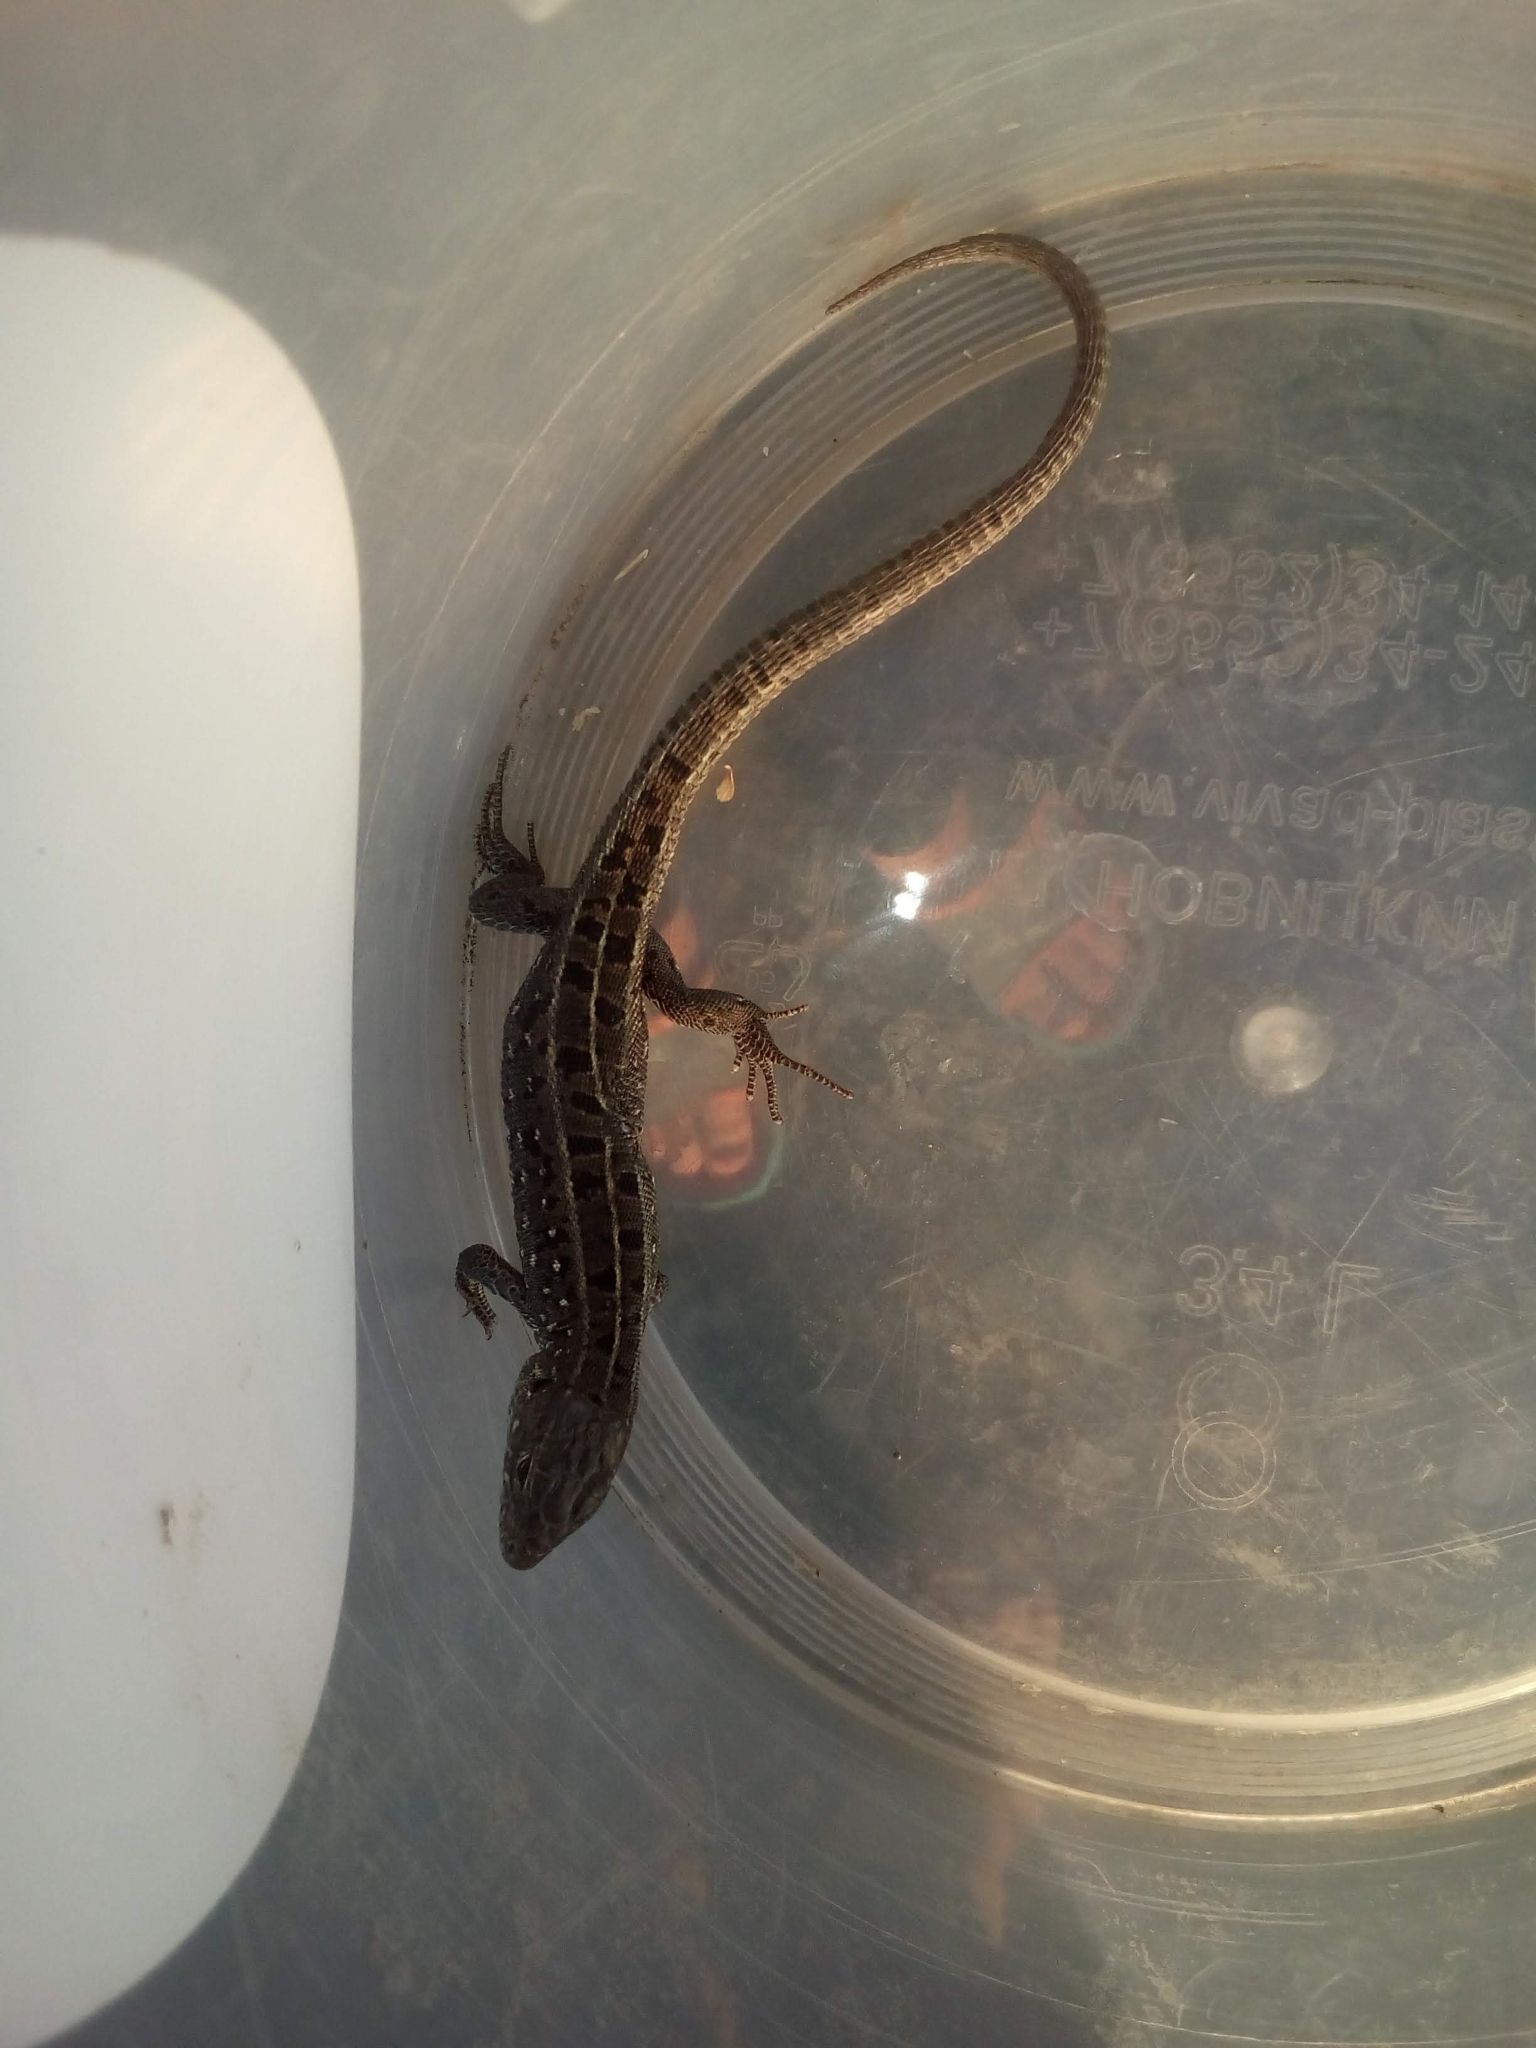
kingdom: Animalia
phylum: Chordata
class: Squamata
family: Lacertidae
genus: Lacerta
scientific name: Lacerta agilis
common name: Sand lizard
